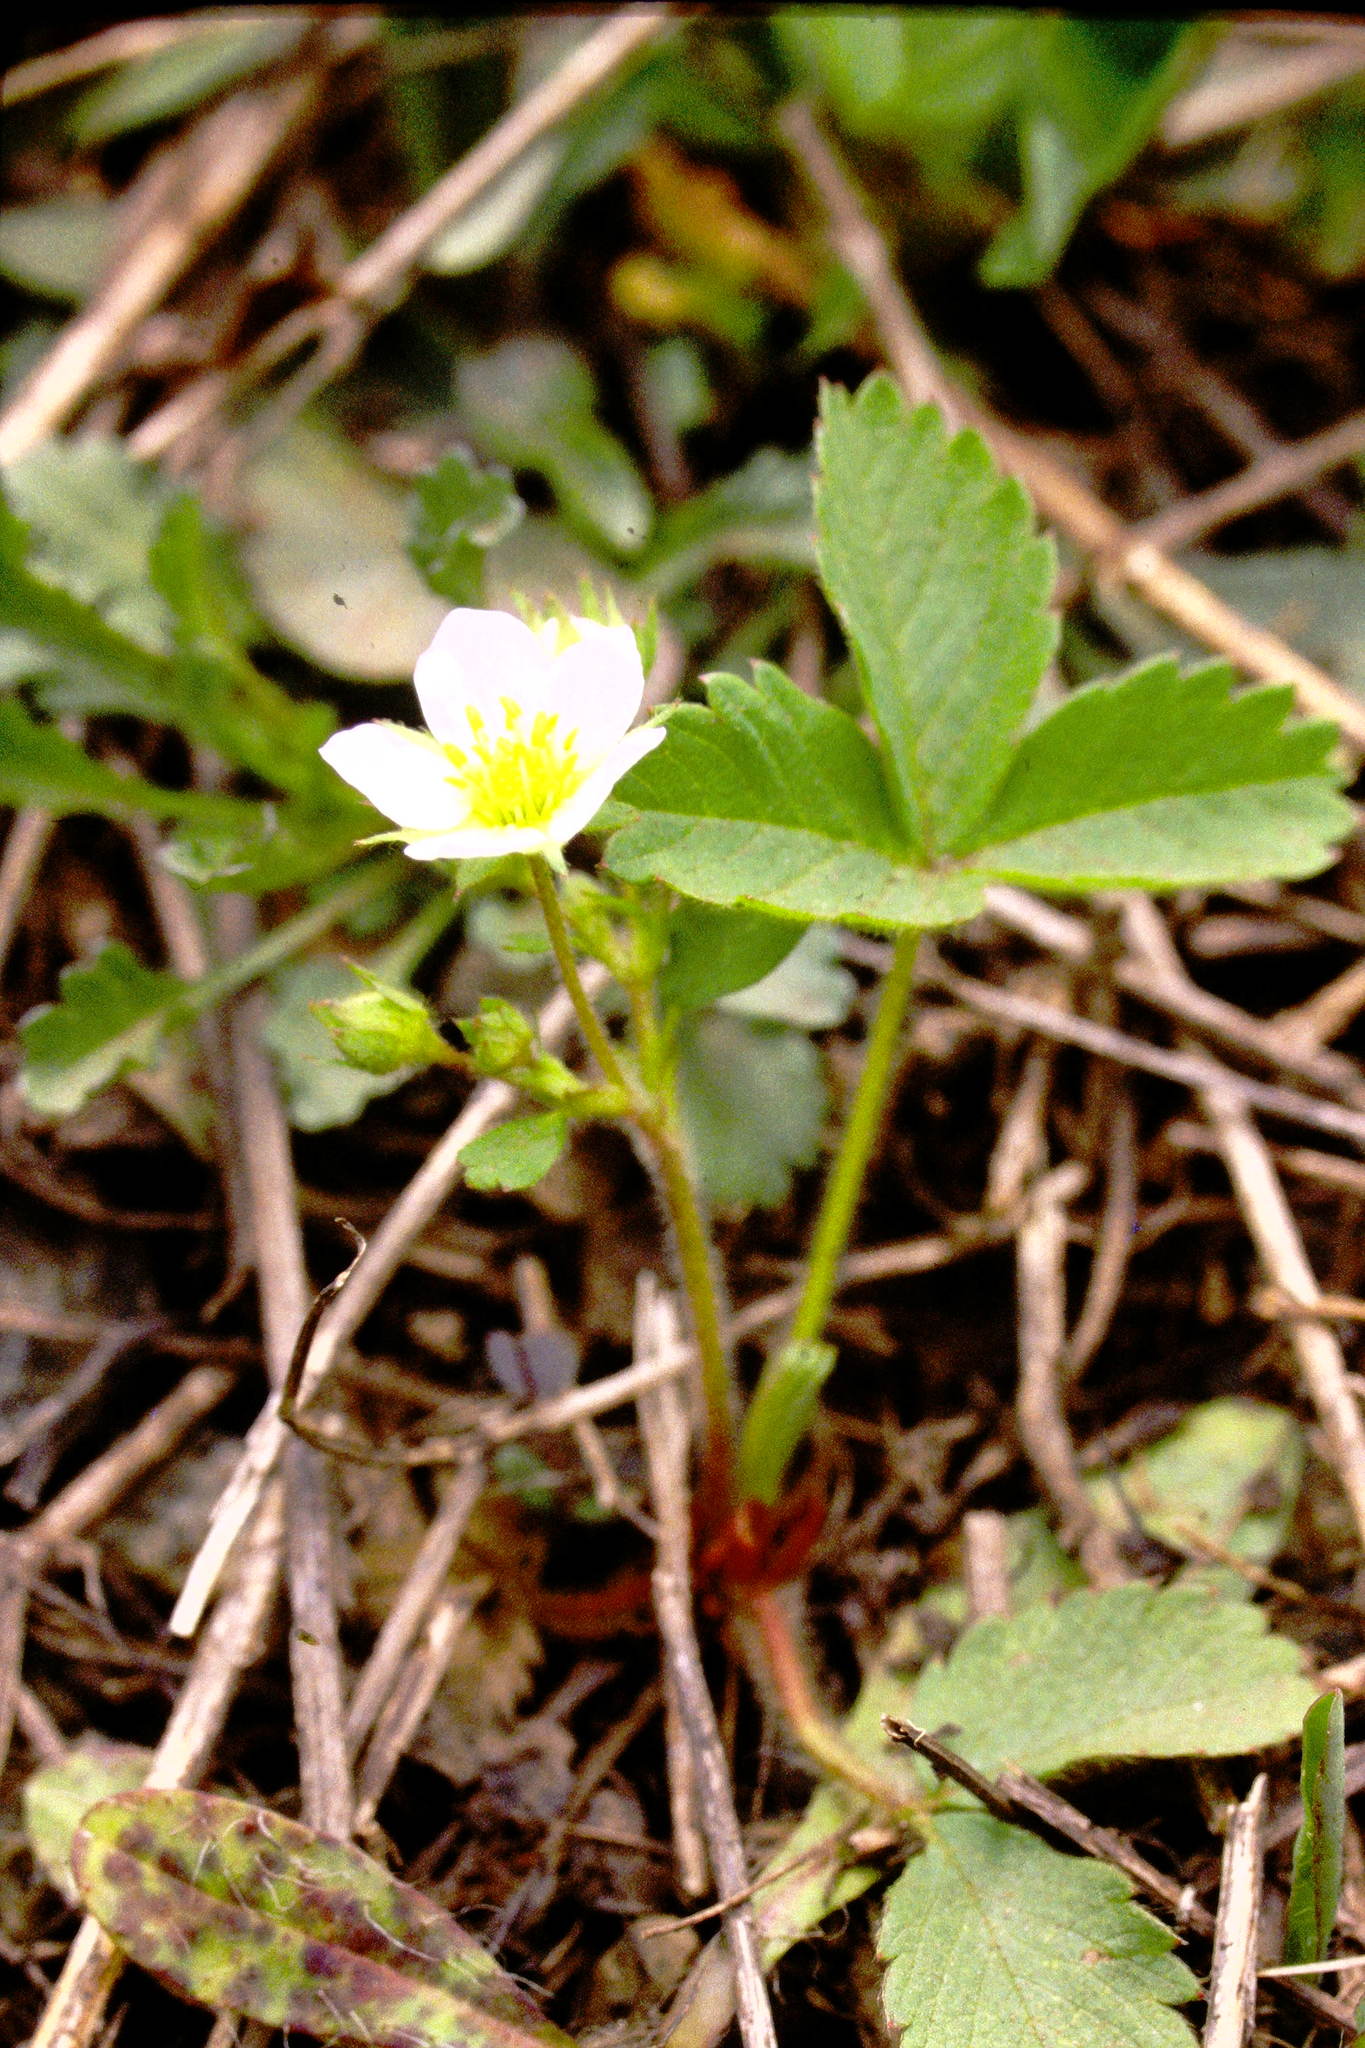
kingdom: Plantae
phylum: Tracheophyta
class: Magnoliopsida
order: Rosales
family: Rosaceae
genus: Fragaria
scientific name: Fragaria virginiana
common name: Thickleaved wild strawberry
